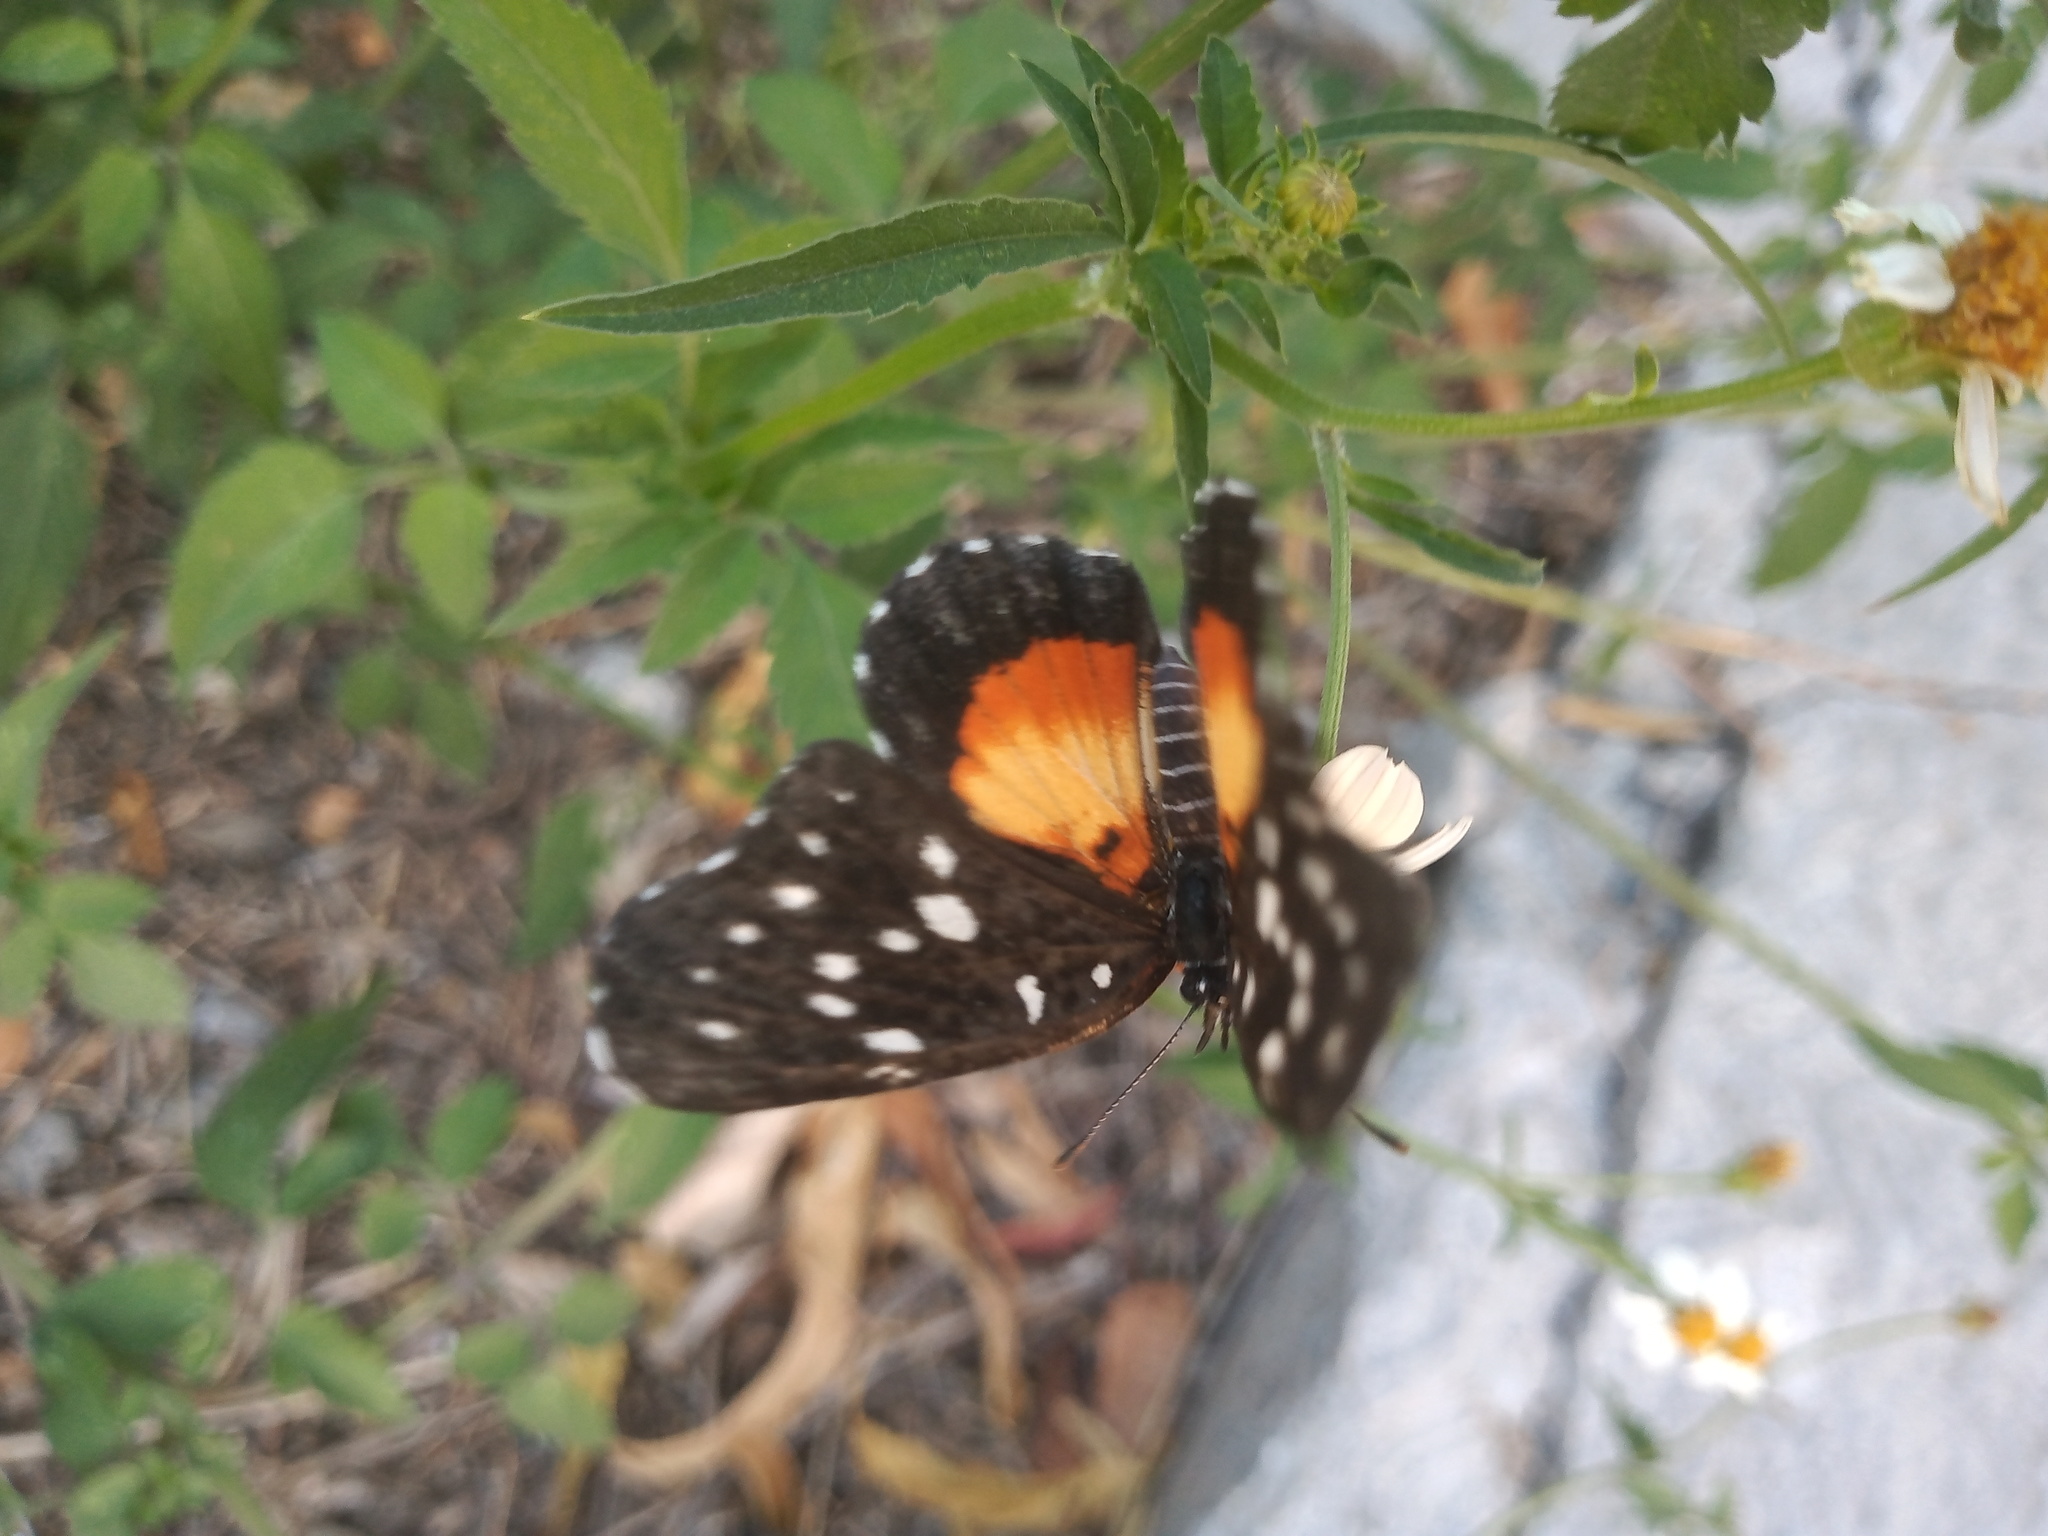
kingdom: Animalia
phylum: Arthropoda
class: Insecta
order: Lepidoptera
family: Nymphalidae
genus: Chlosyne
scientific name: Chlosyne rosita
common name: Rosita patch
